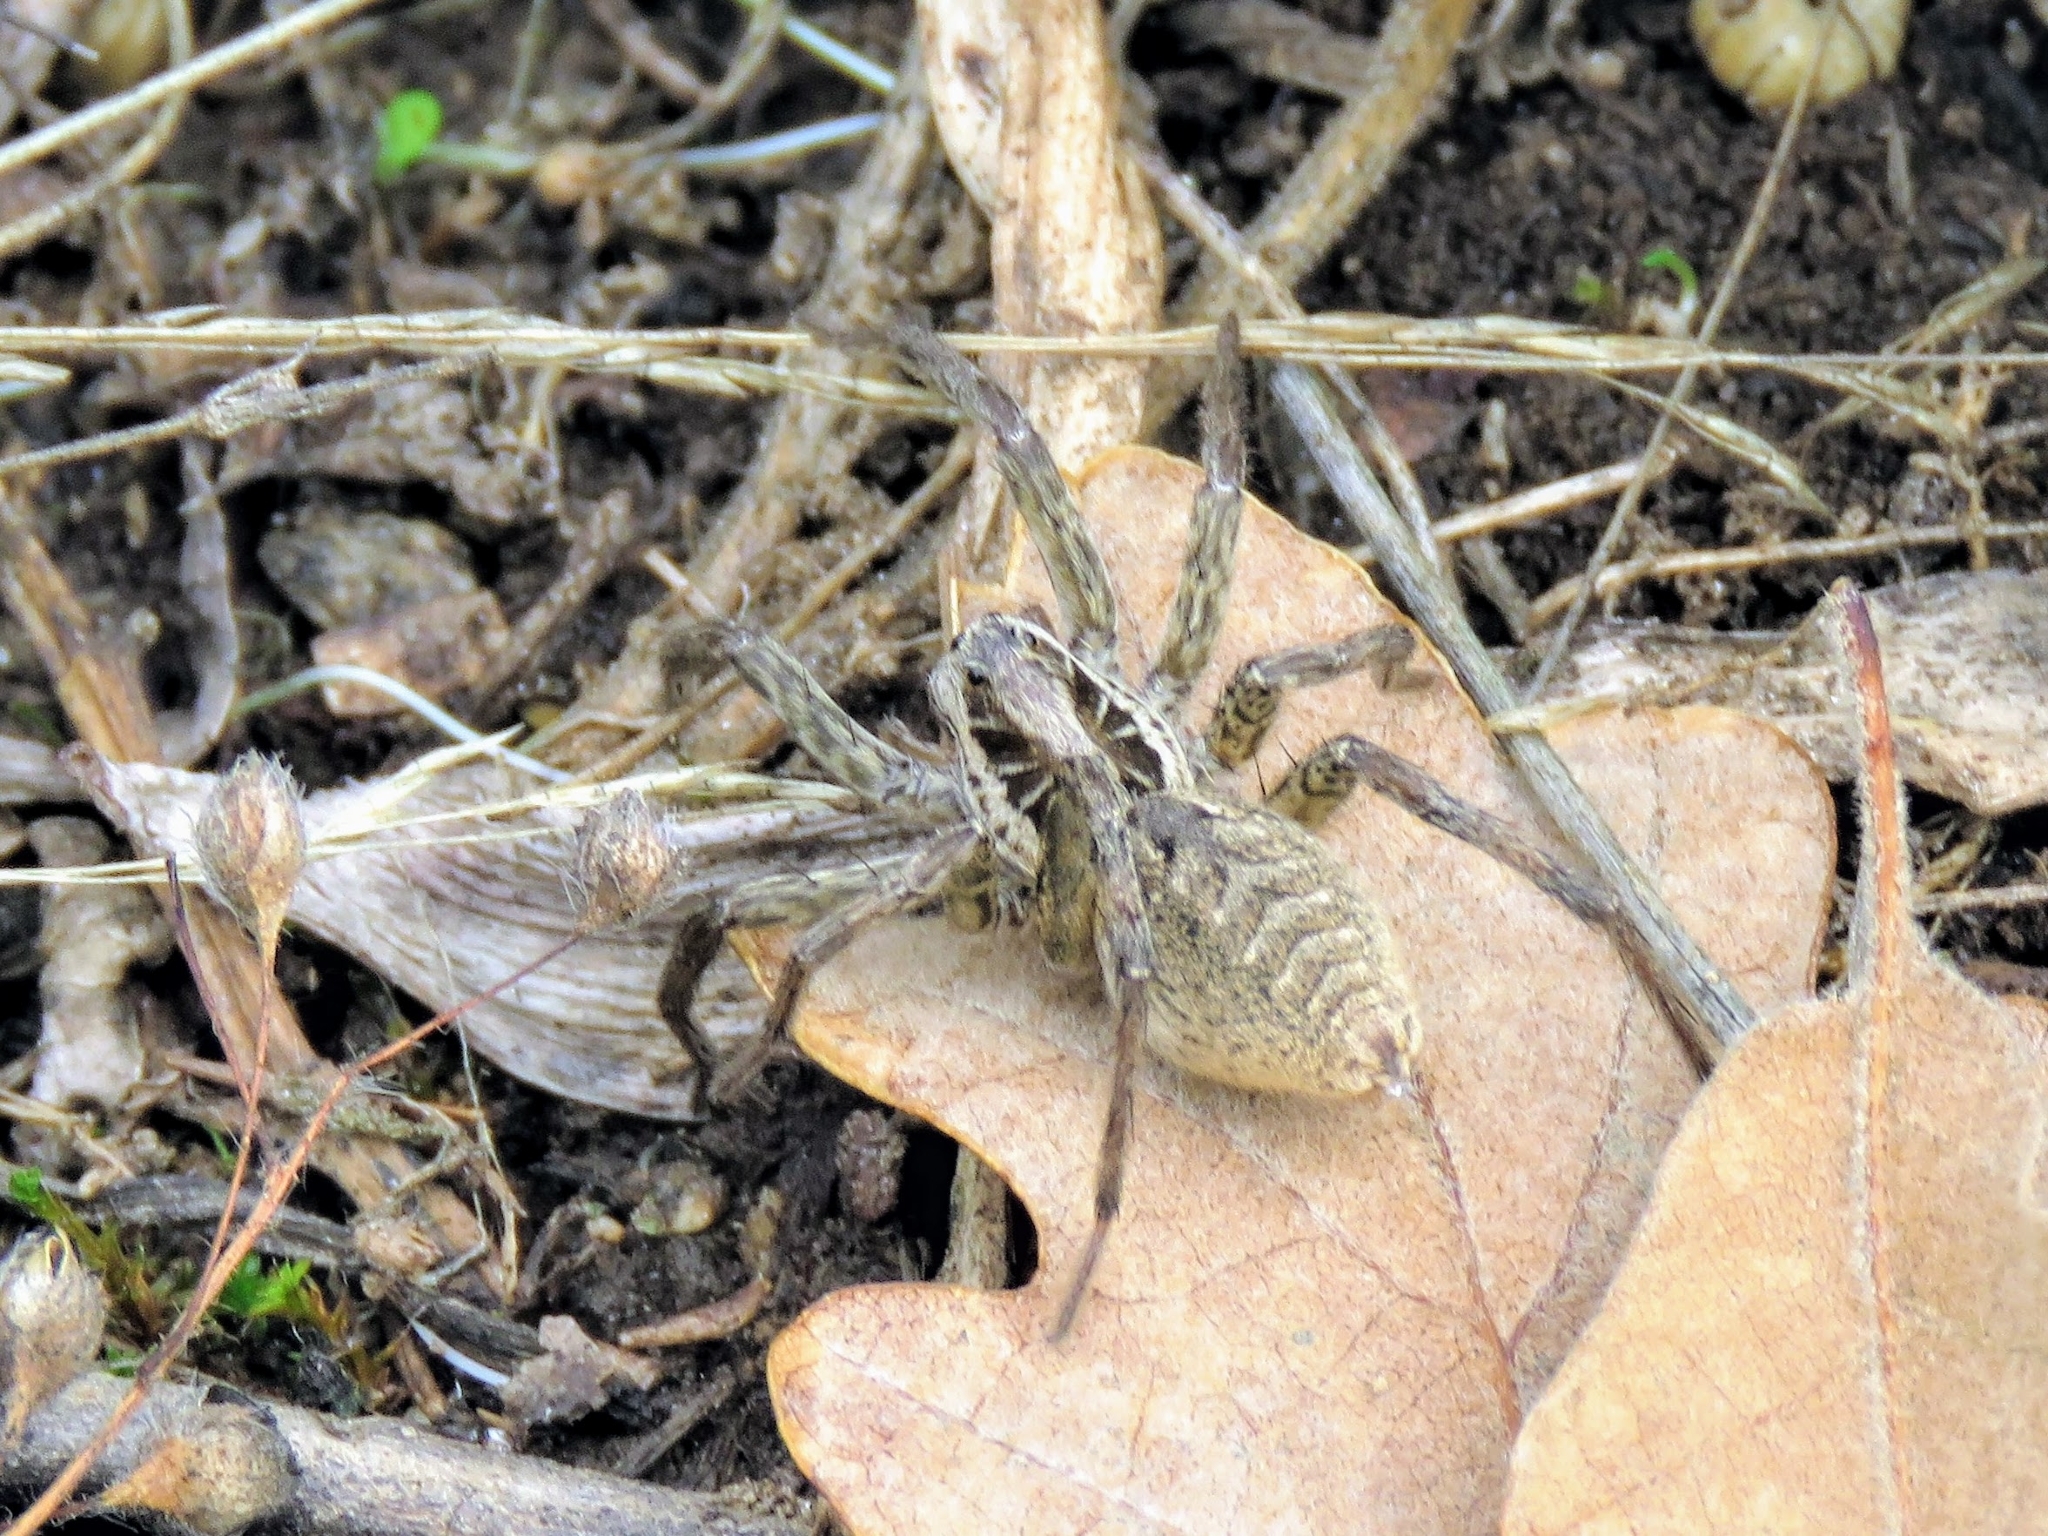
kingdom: Animalia
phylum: Arthropoda
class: Arachnida
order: Araneae
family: Lycosidae
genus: Hogna
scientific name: Hogna radiata
